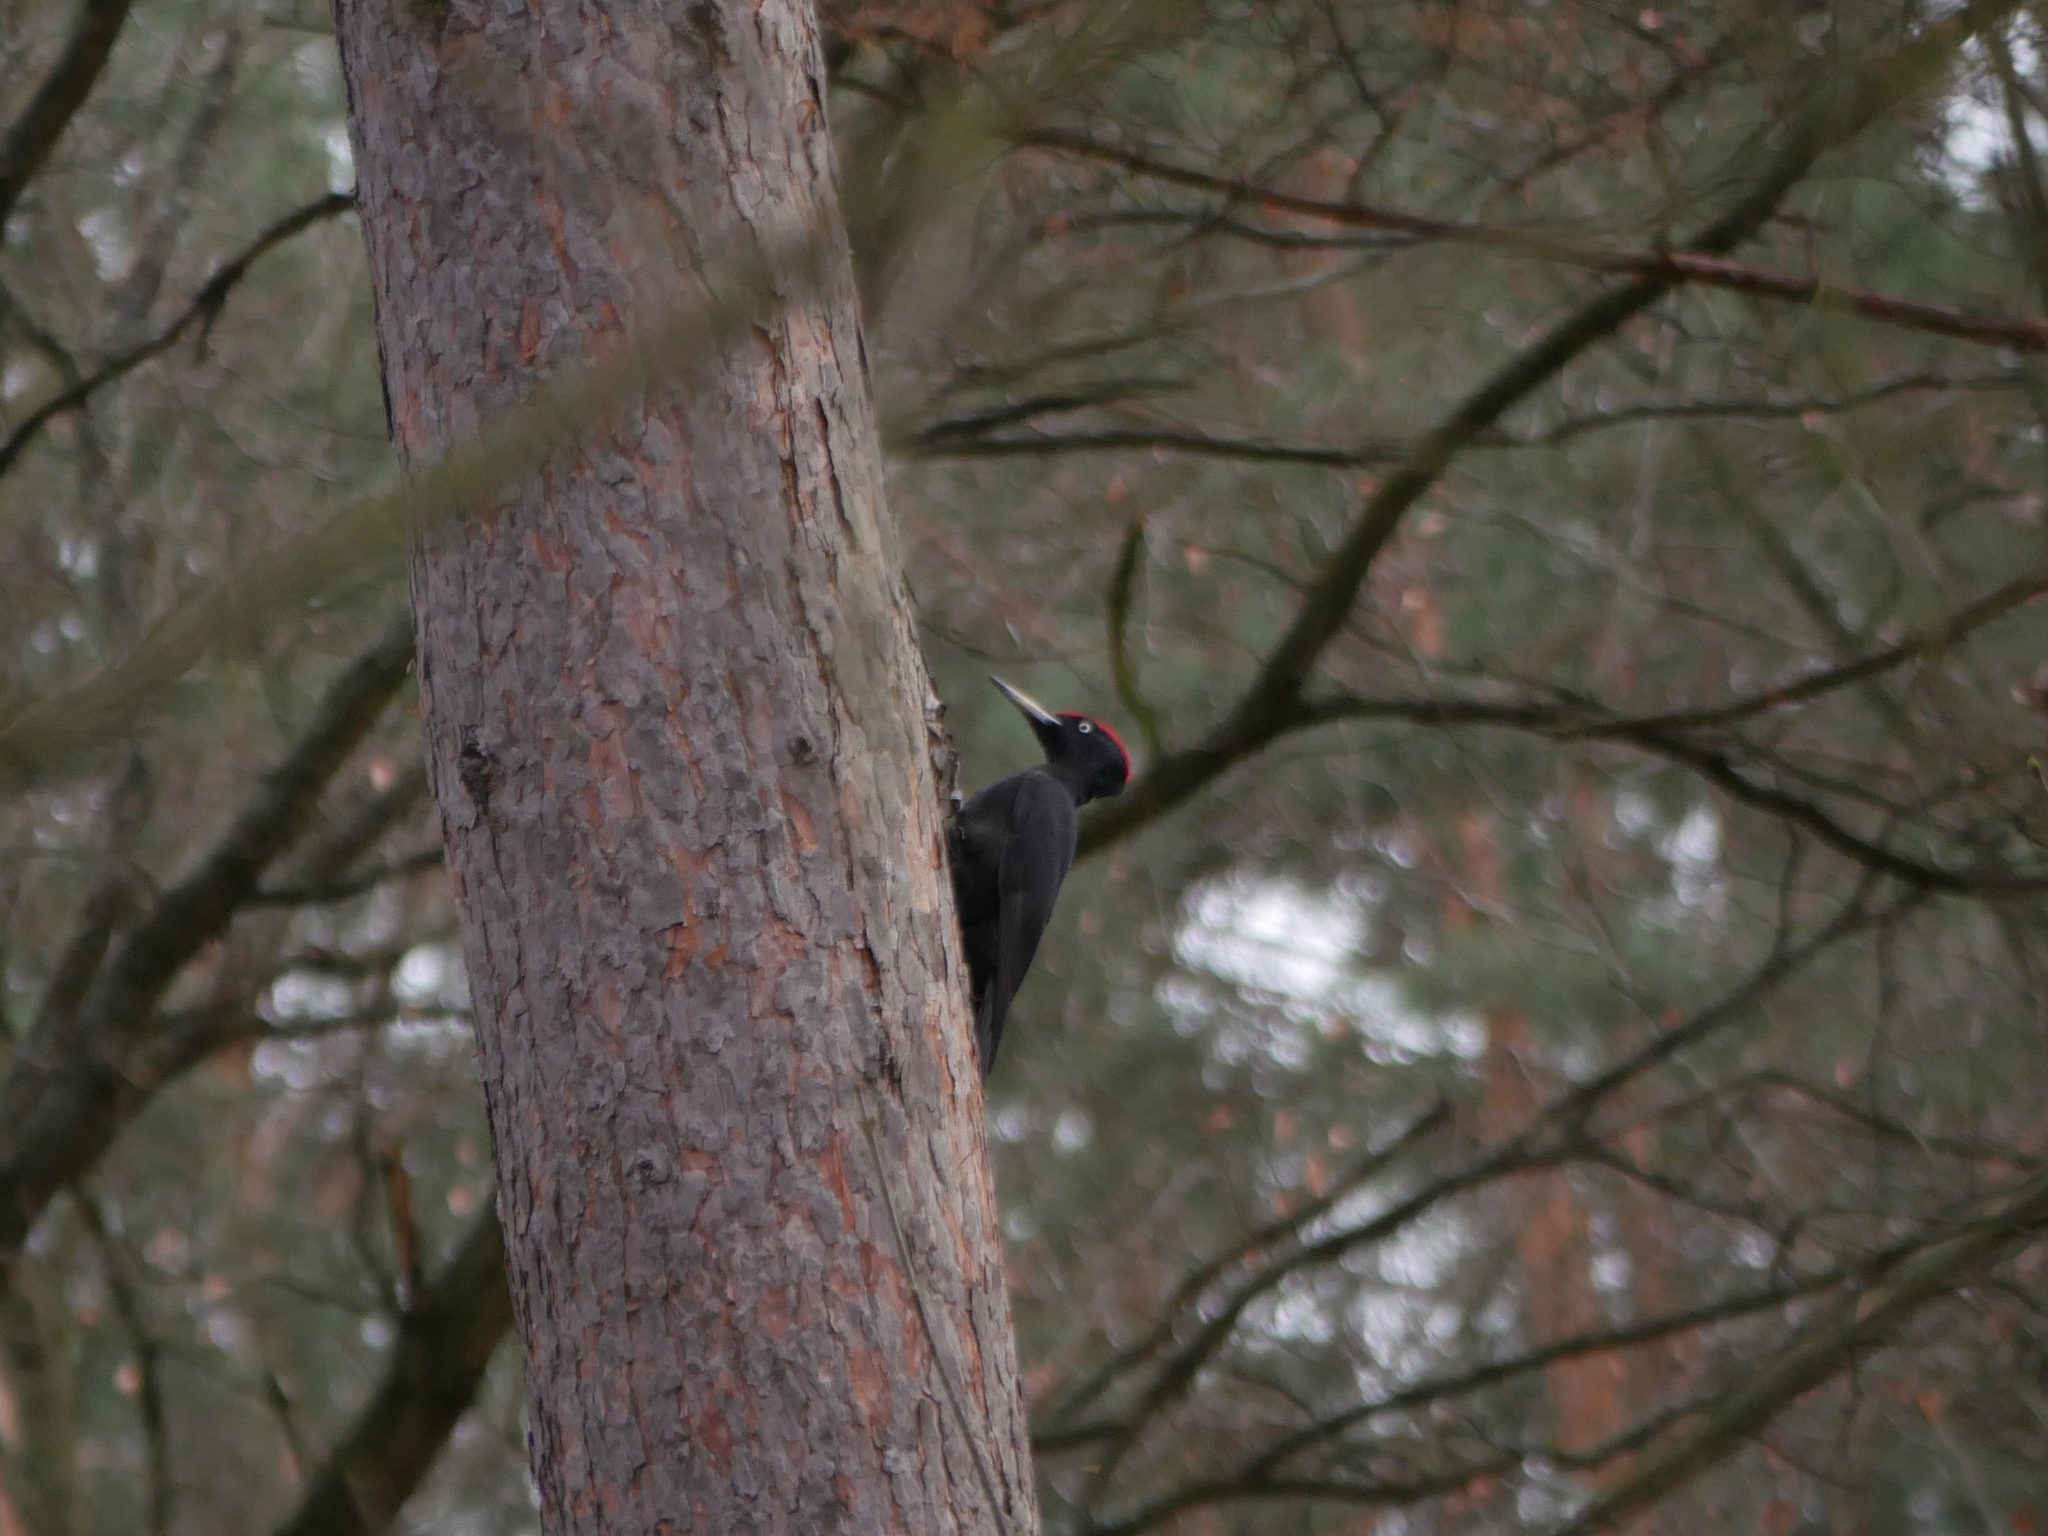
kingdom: Animalia
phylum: Chordata
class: Aves
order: Piciformes
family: Picidae
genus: Dryocopus
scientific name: Dryocopus martius
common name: Black woodpecker
